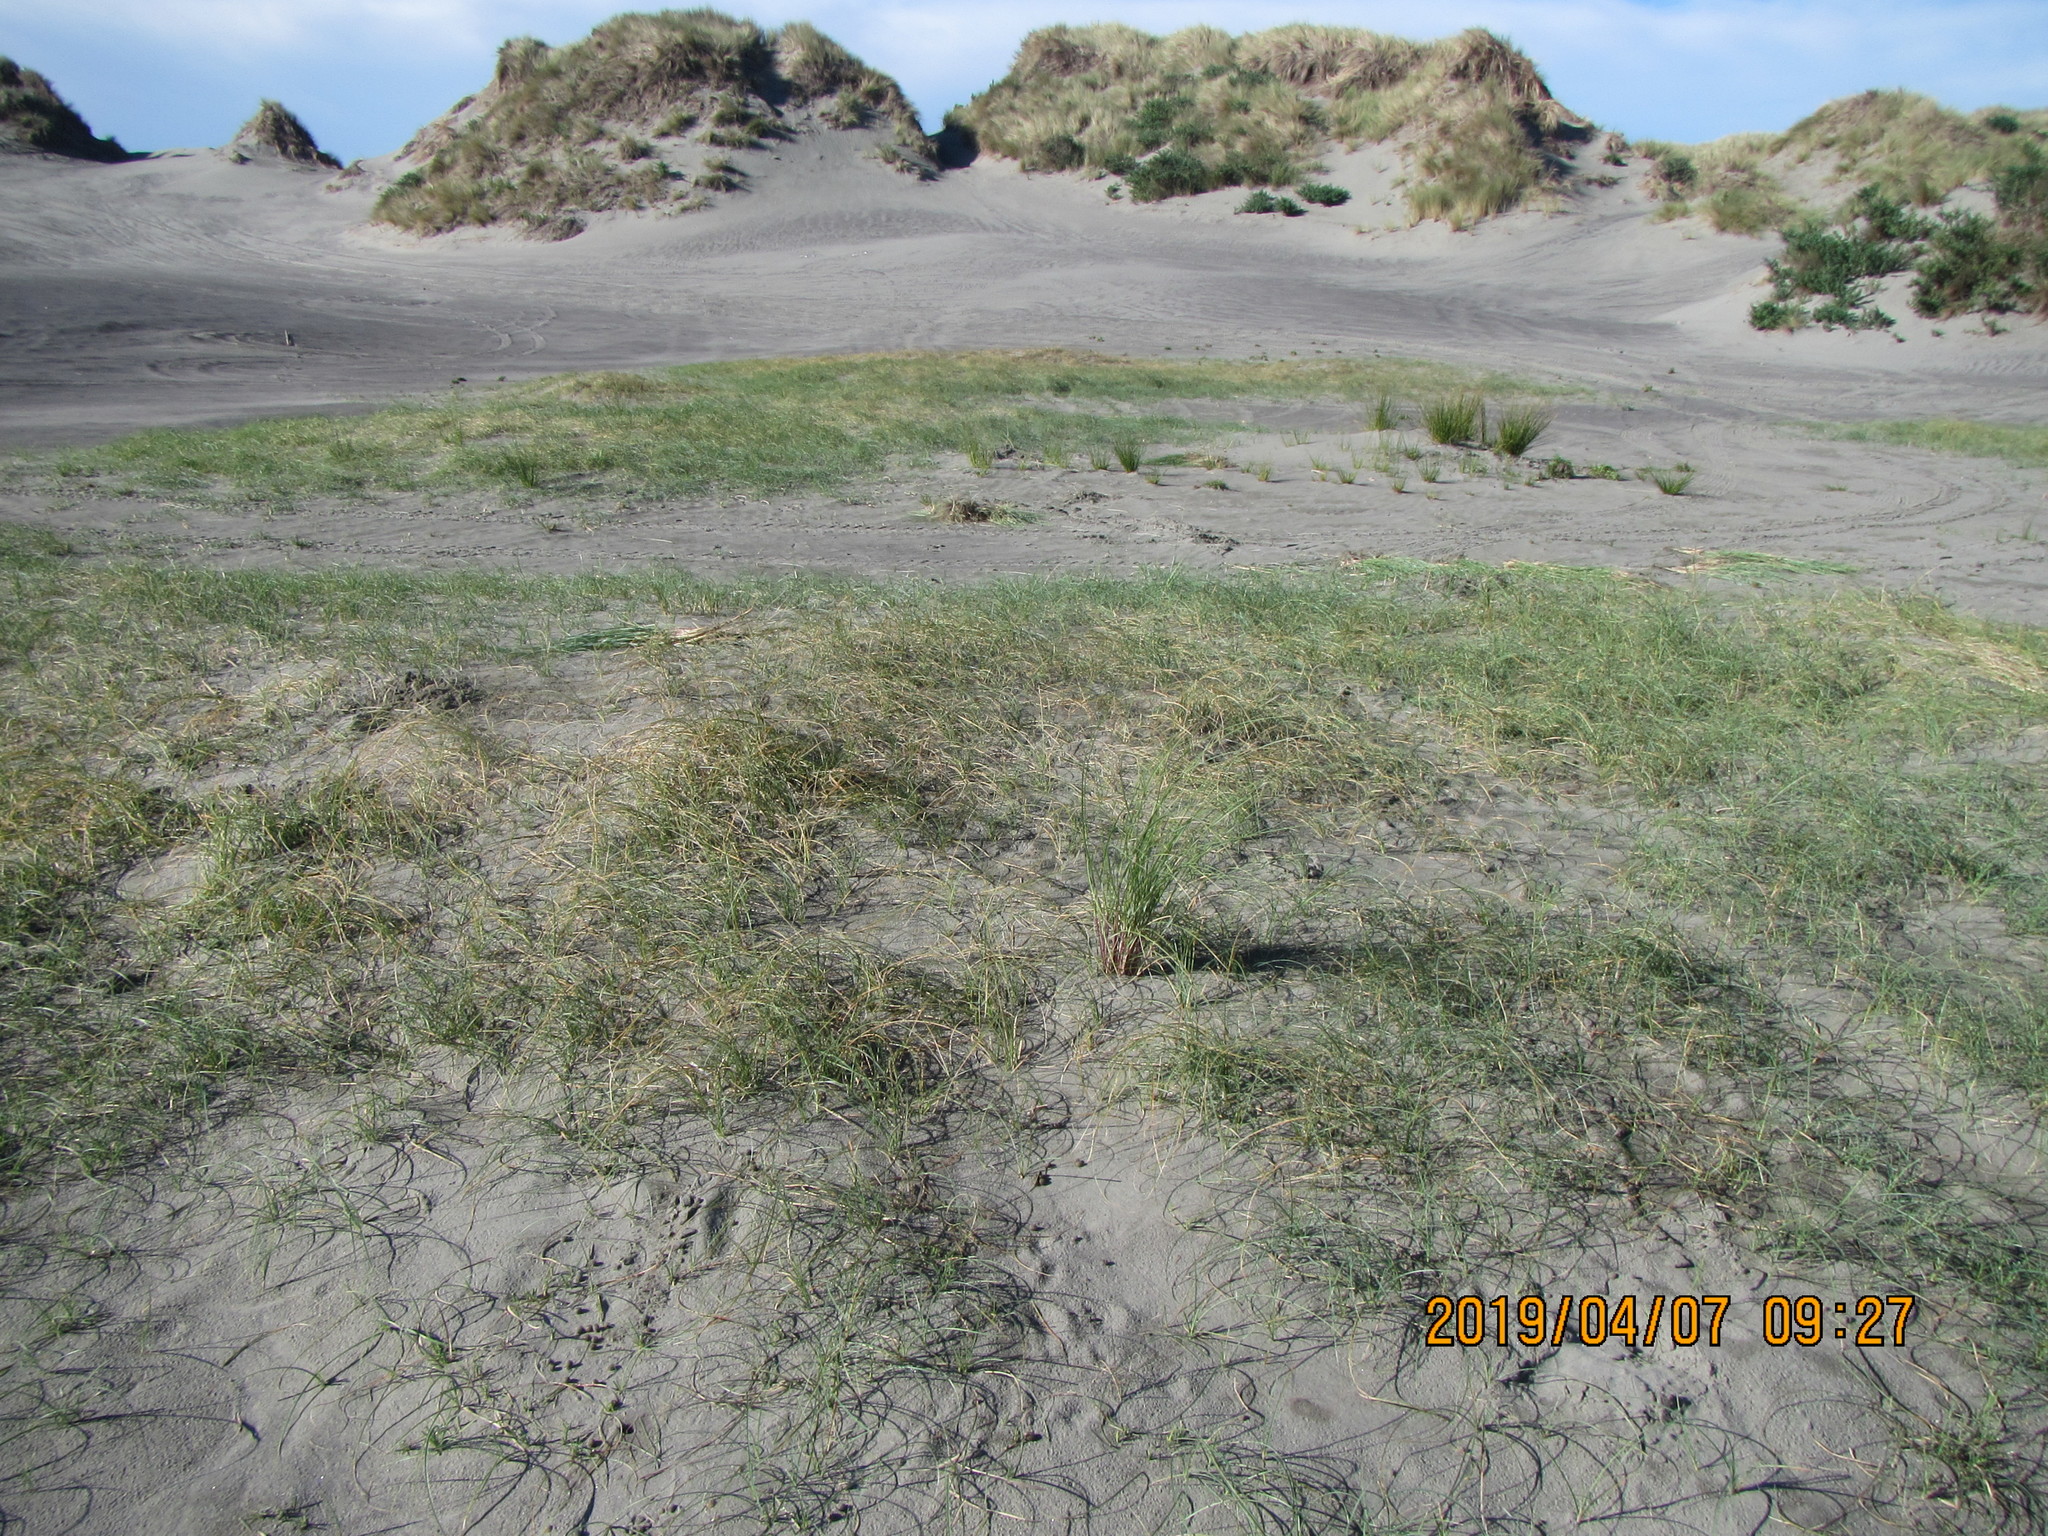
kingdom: Plantae
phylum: Tracheophyta
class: Liliopsida
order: Poales
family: Poaceae
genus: Calamagrostis
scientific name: Calamagrostis arenaria
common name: European beachgrass
